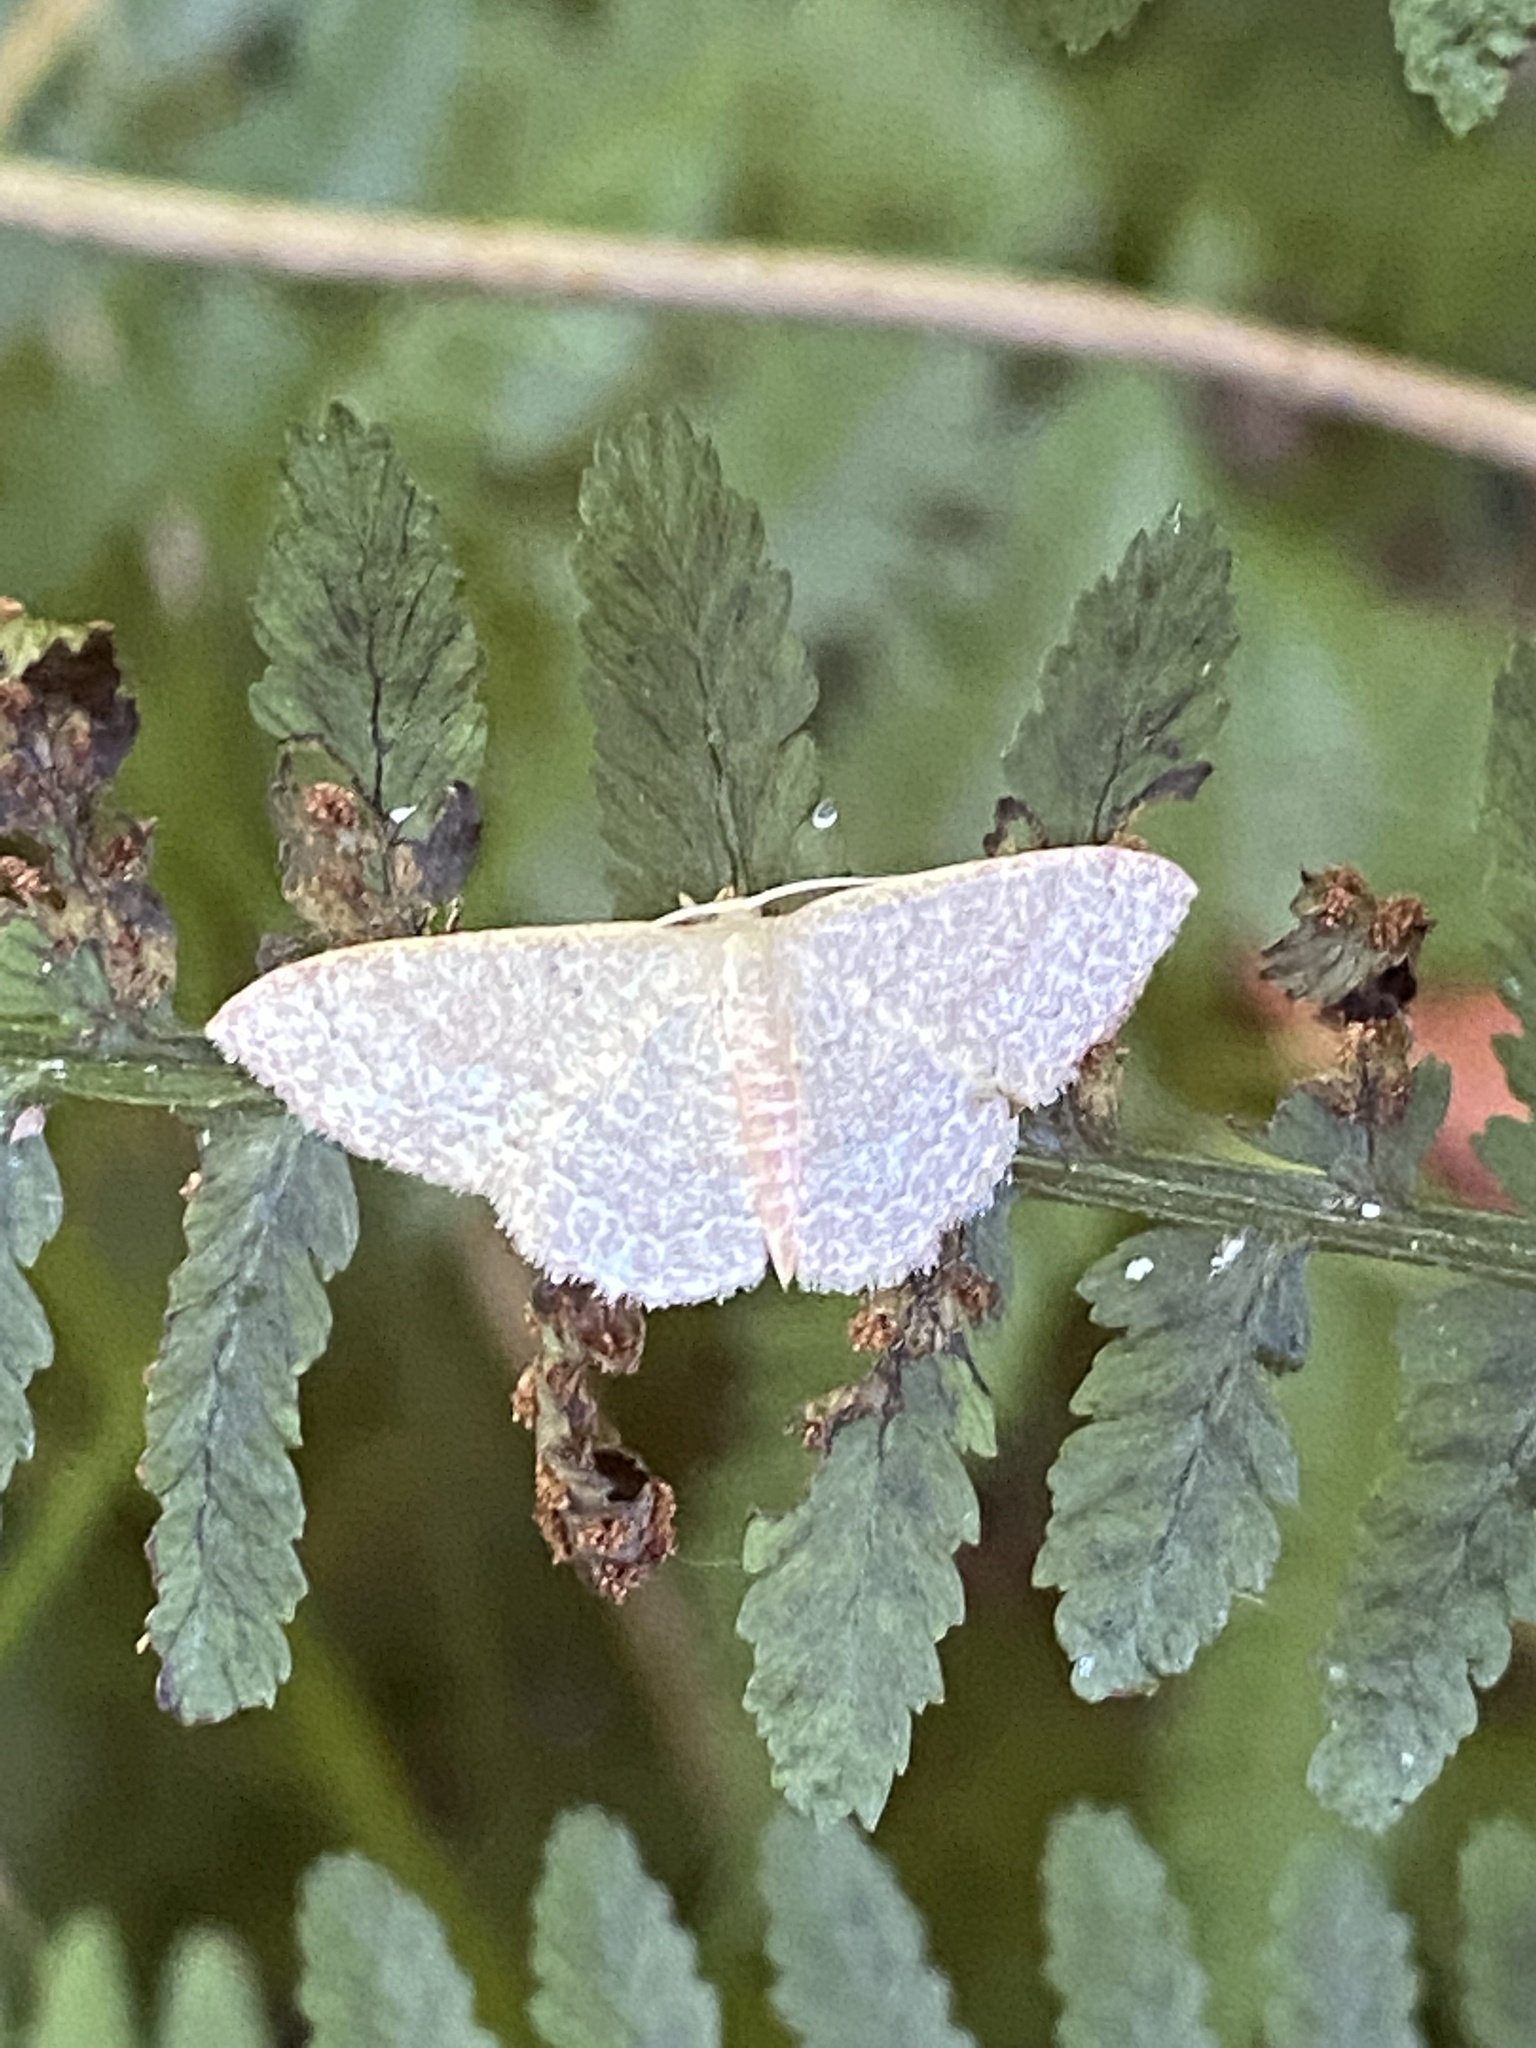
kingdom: Animalia
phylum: Arthropoda
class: Insecta
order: Lepidoptera
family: Geometridae
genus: Pleuroprucha
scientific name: Pleuroprucha insulsaria
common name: Common tan wave
